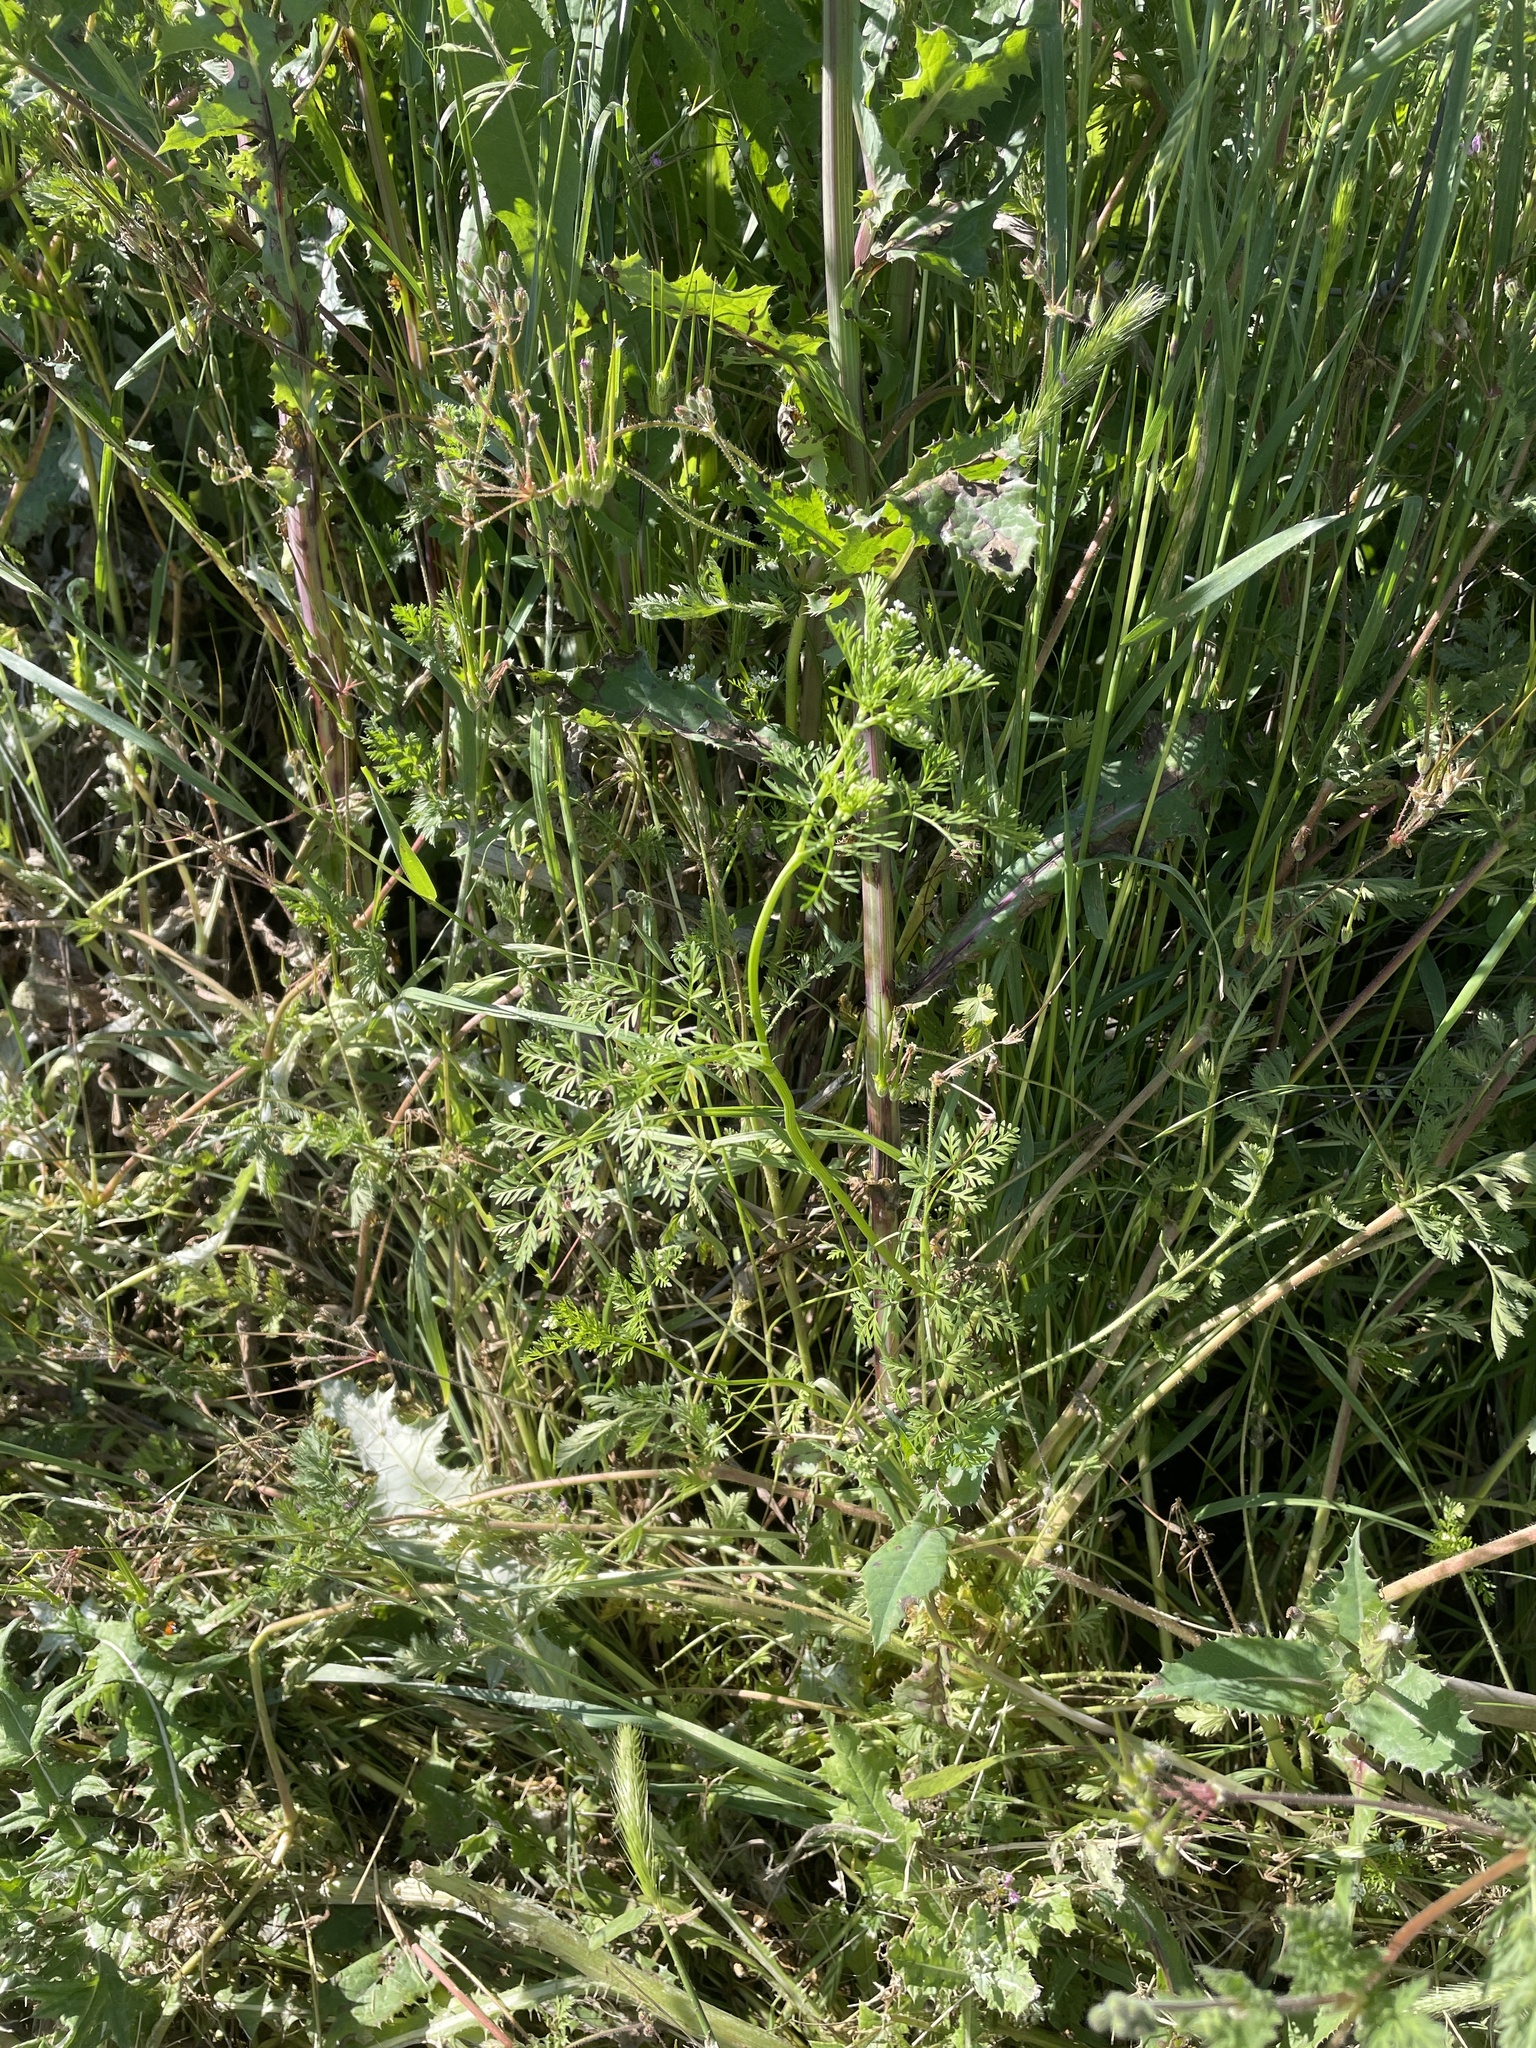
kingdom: Plantae
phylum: Tracheophyta
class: Magnoliopsida
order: Apiales
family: Apiaceae
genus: Chaerophyllum
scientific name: Chaerophyllum tainturieri
